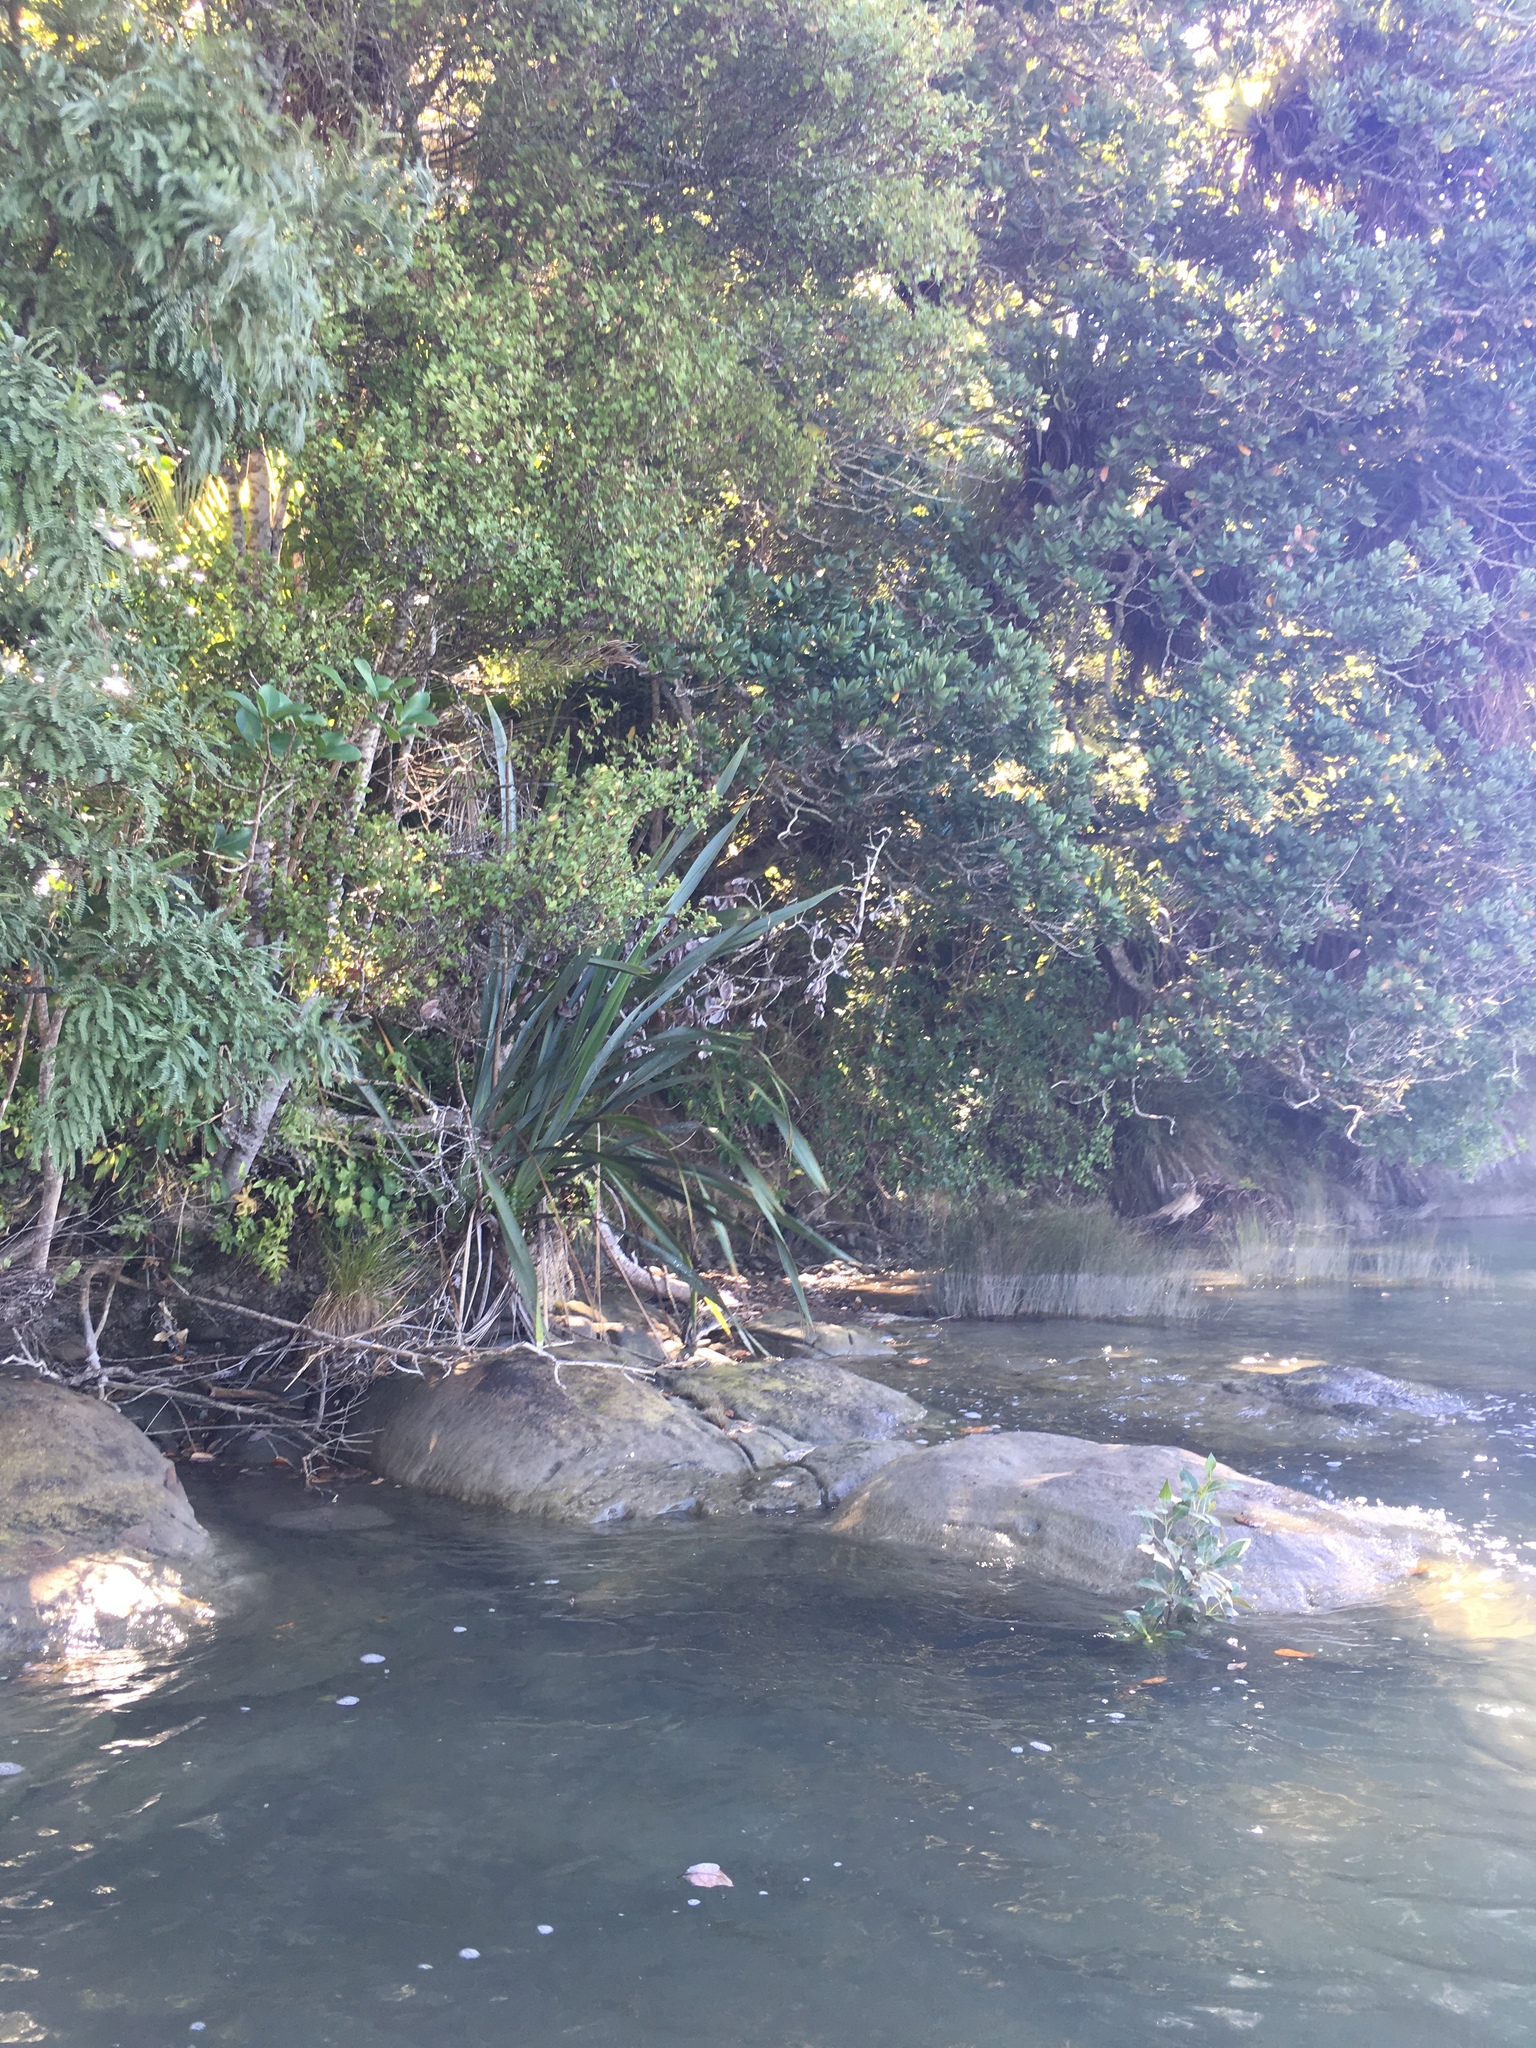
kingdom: Plantae
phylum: Tracheophyta
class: Liliopsida
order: Asparagales
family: Asphodelaceae
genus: Phormium
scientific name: Phormium tenax
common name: New zealand flax
